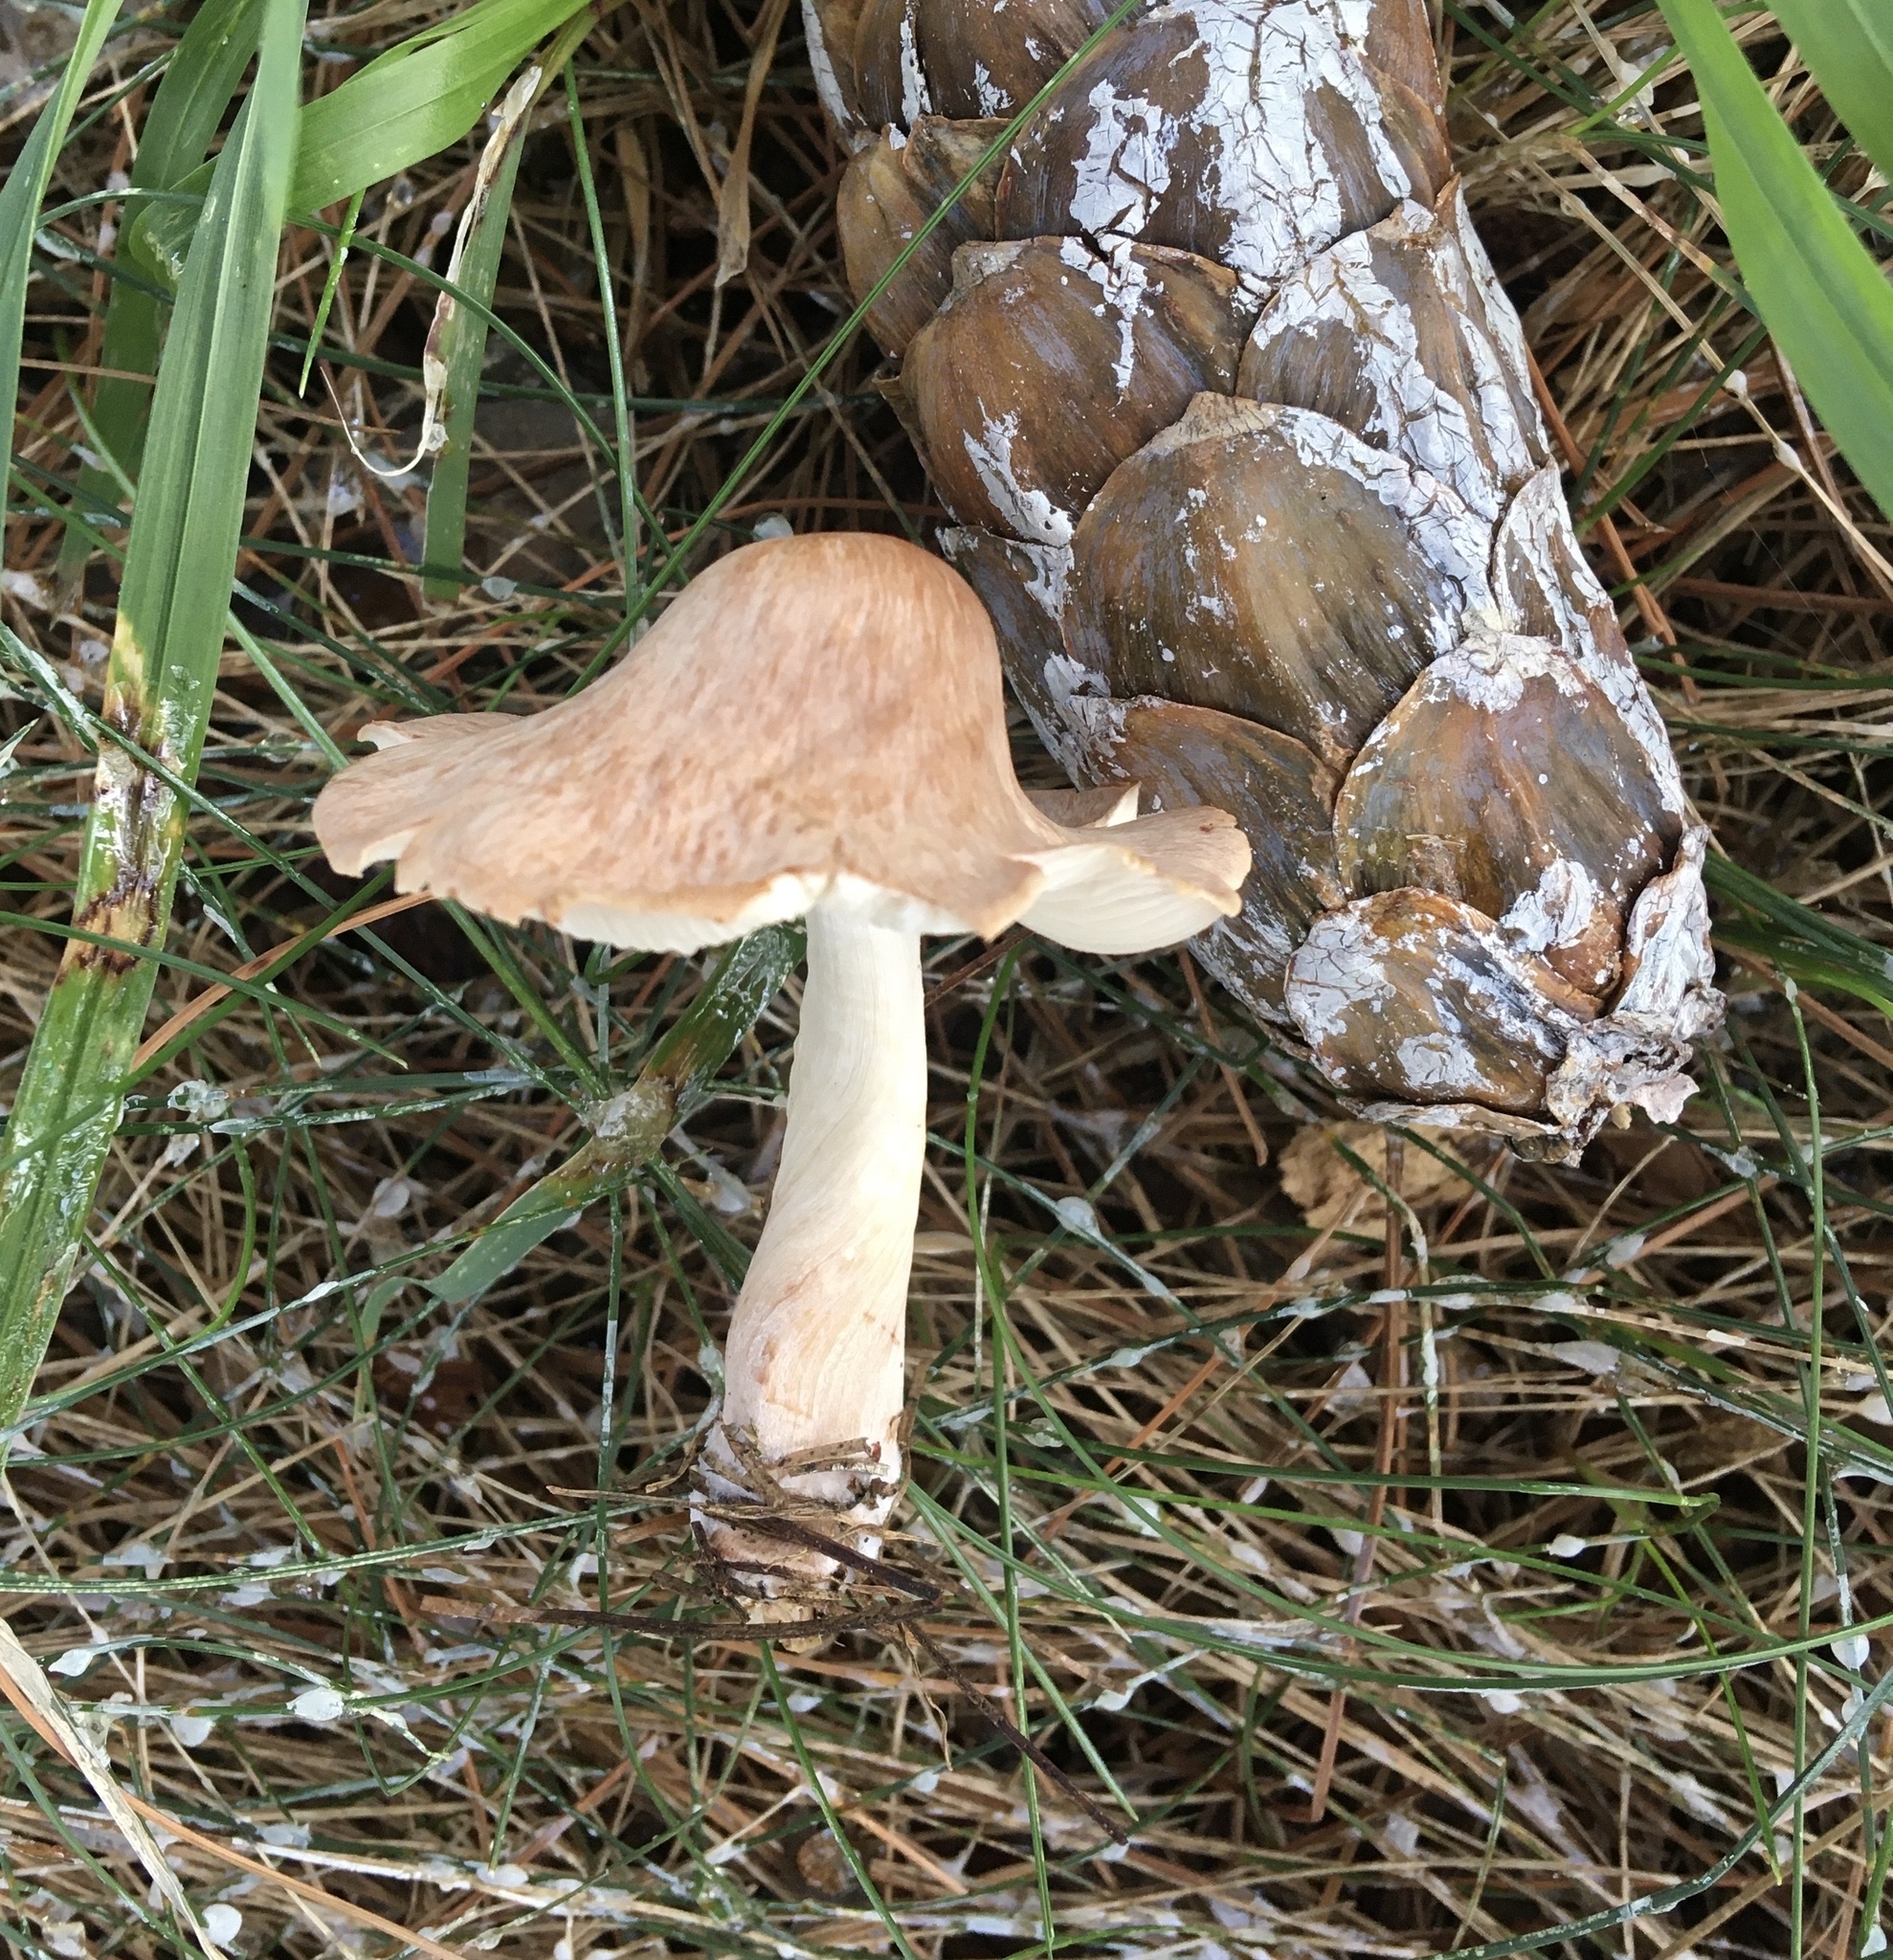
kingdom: Fungi
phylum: Basidiomycota
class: Agaricomycetes
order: Agaricales
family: Omphalotaceae
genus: Collybiopsis
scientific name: Collybiopsis luxurians
